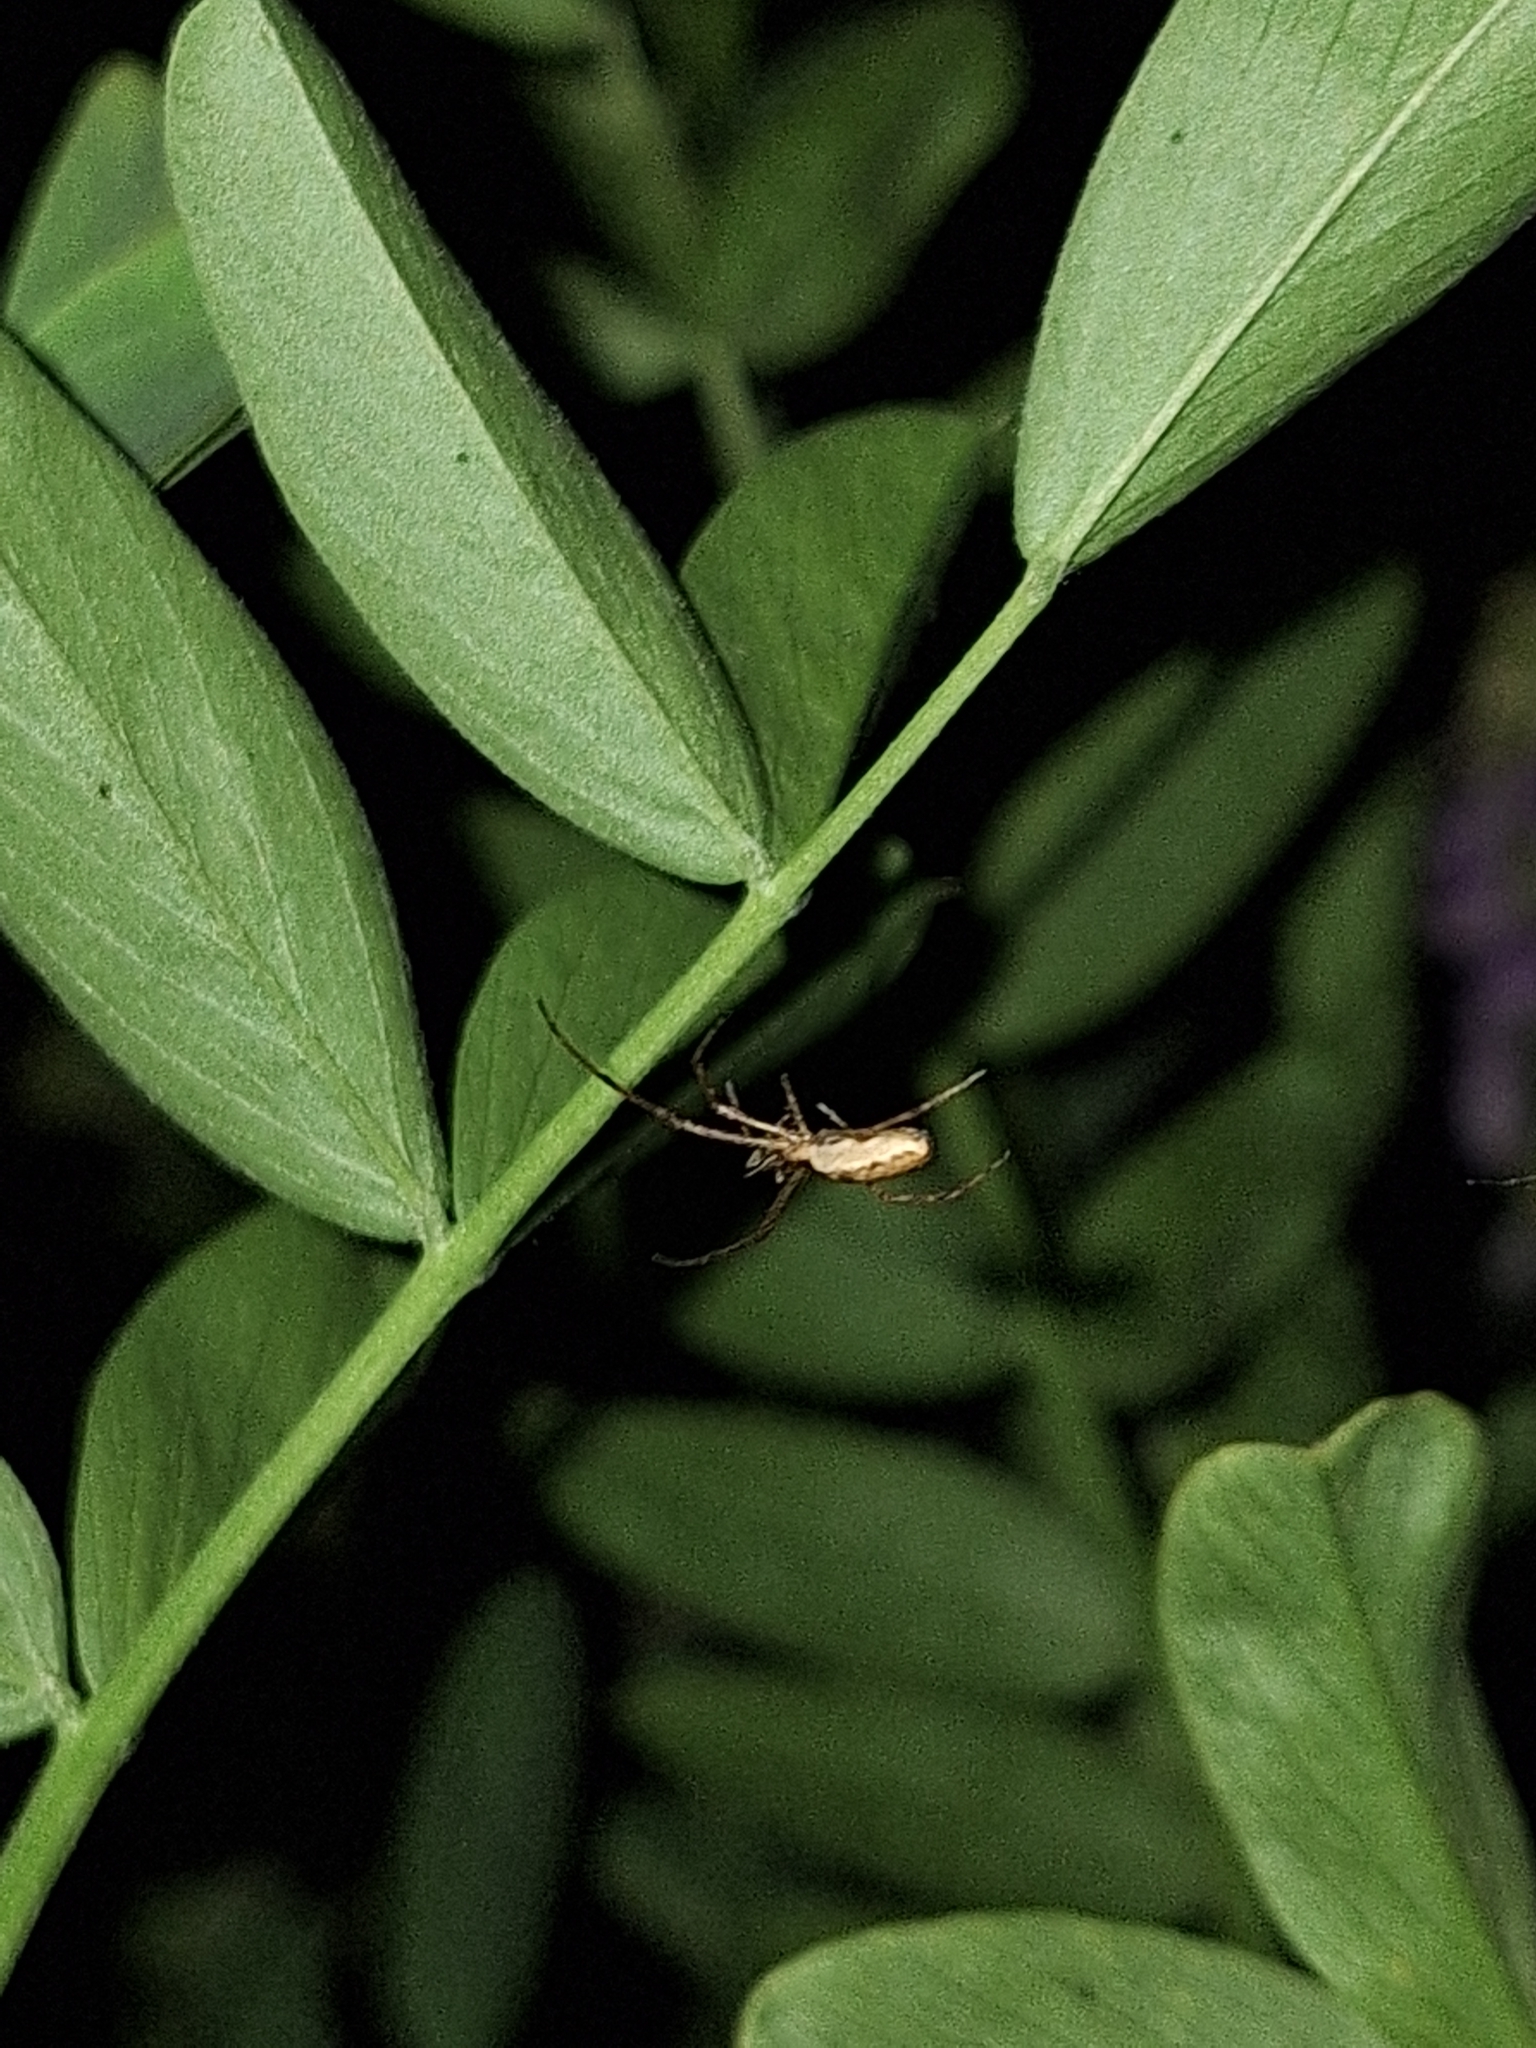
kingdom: Animalia
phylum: Arthropoda
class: Arachnida
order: Araneae
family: Tetragnathidae
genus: Tetragnatha
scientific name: Tetragnatha
